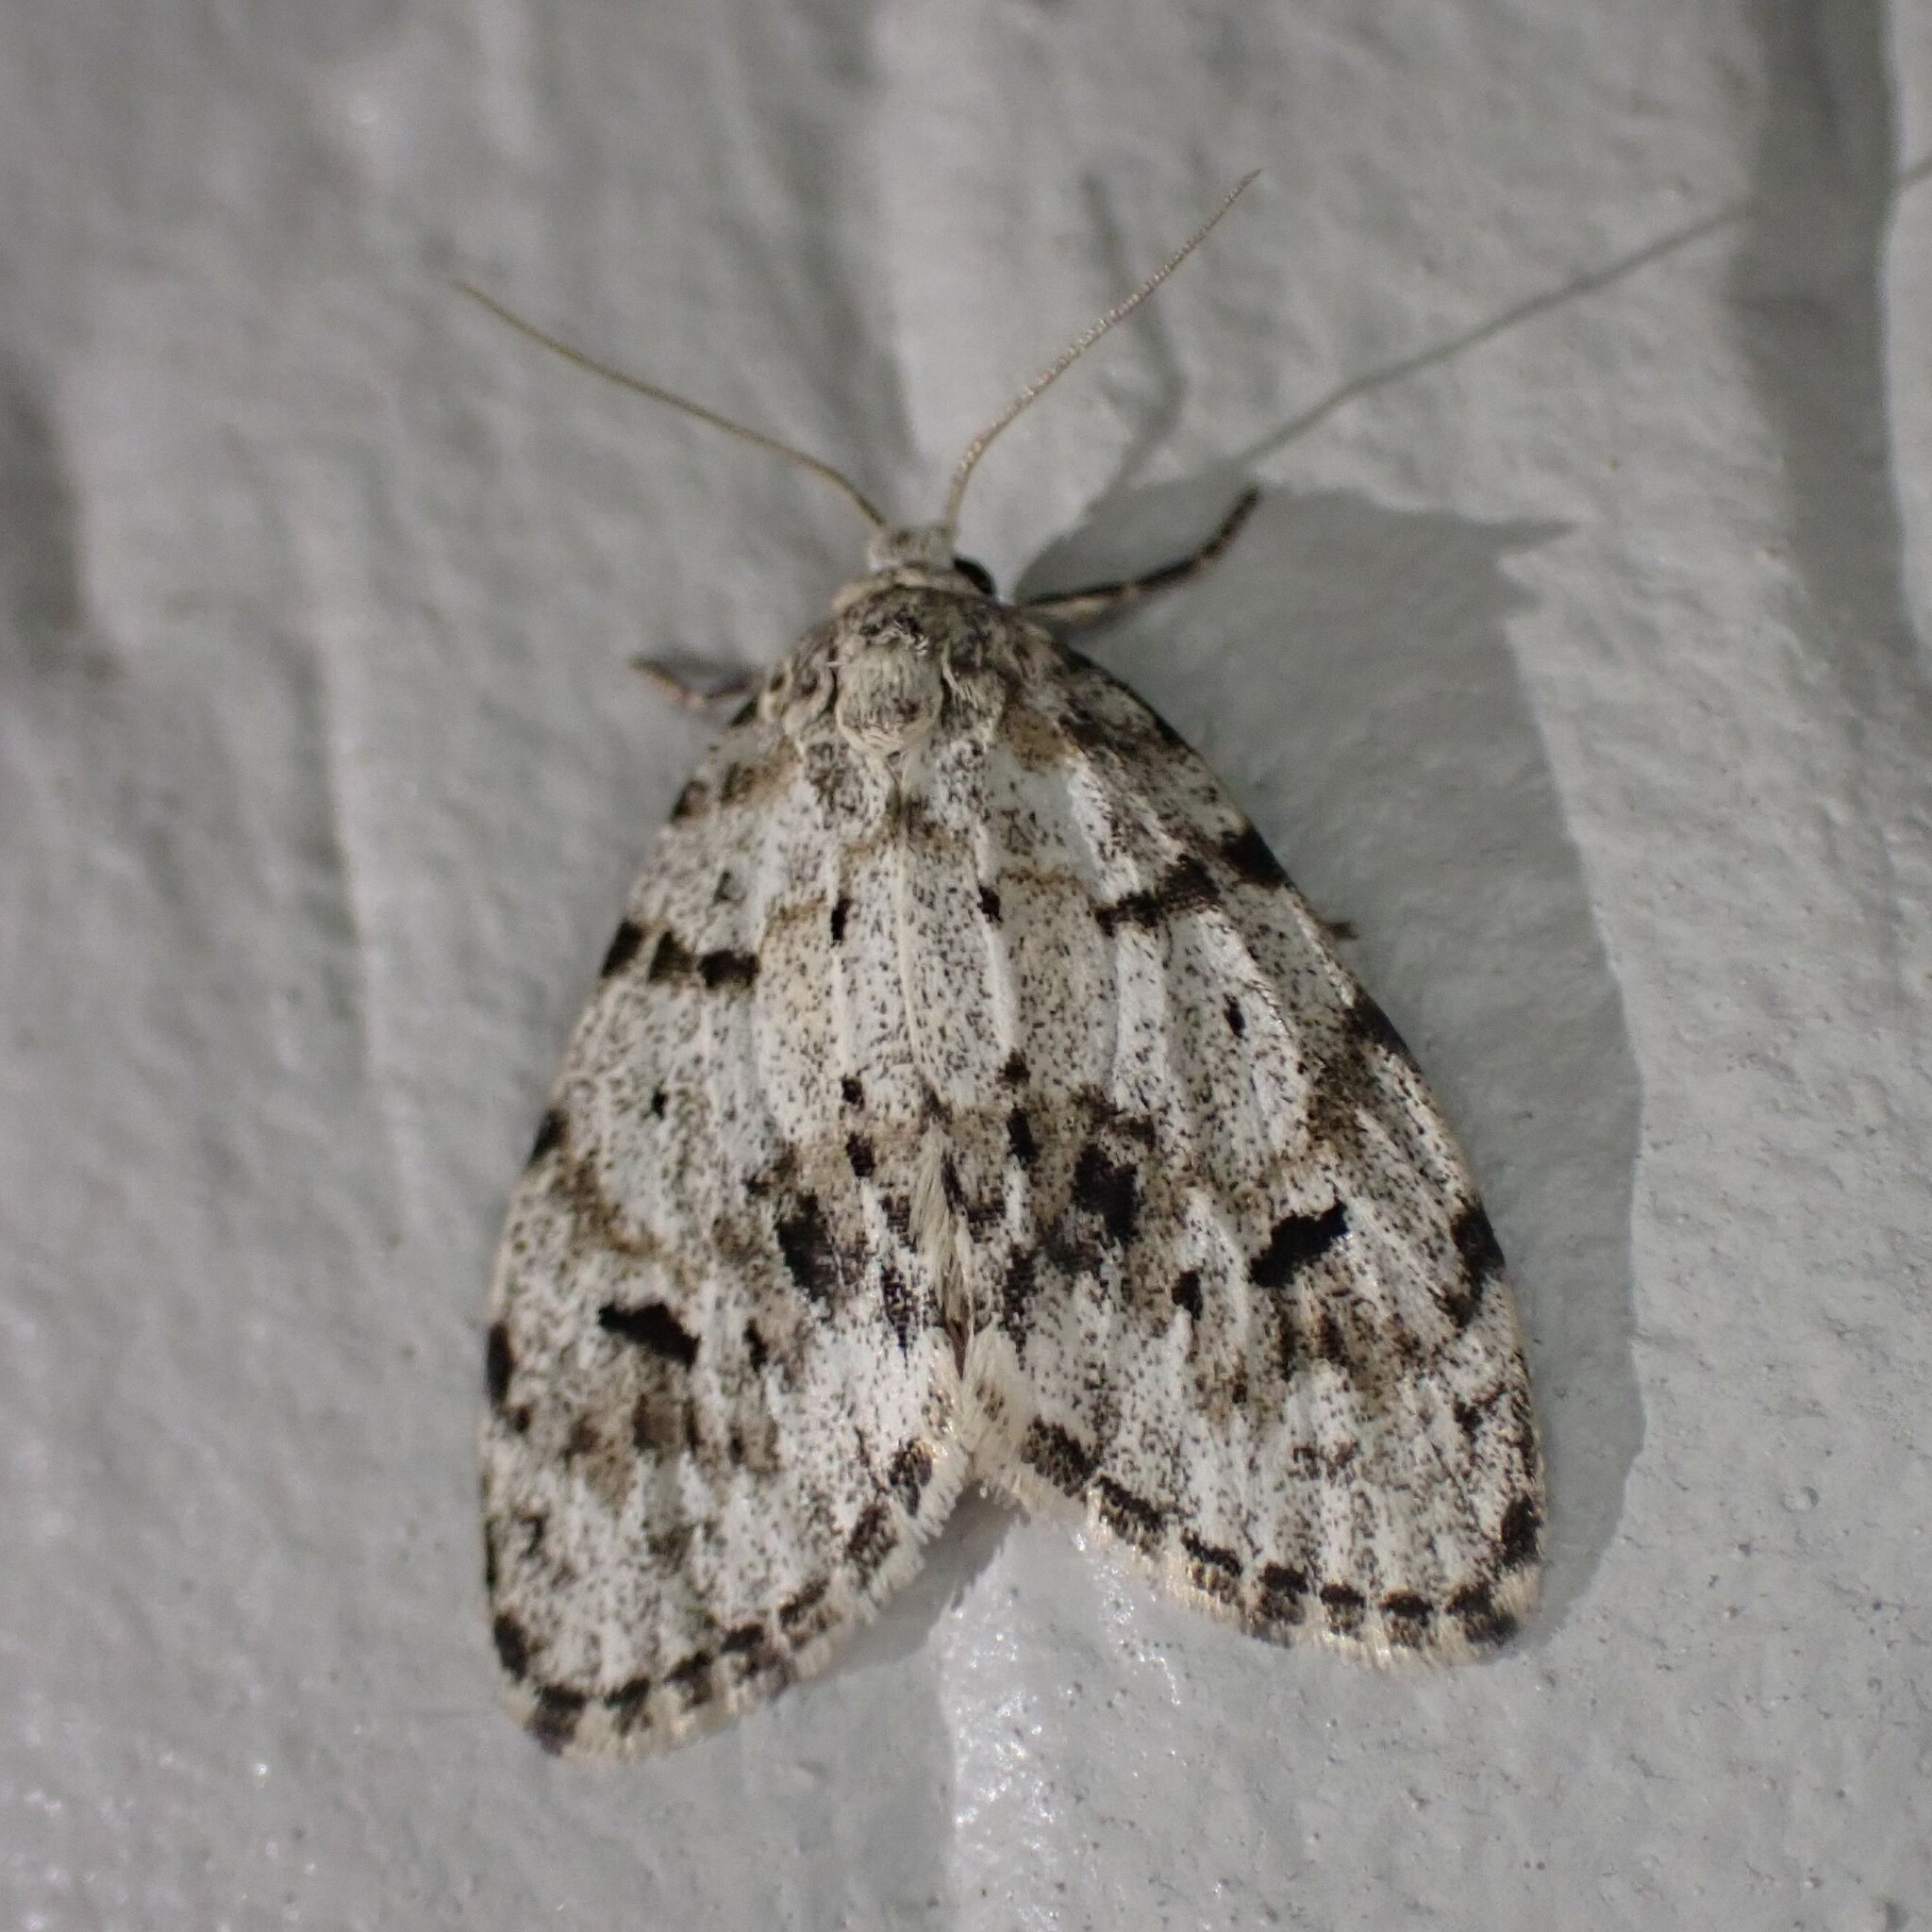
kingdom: Animalia
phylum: Arthropoda
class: Insecta
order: Lepidoptera
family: Erebidae
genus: Clemensia
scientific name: Clemensia umbrata
